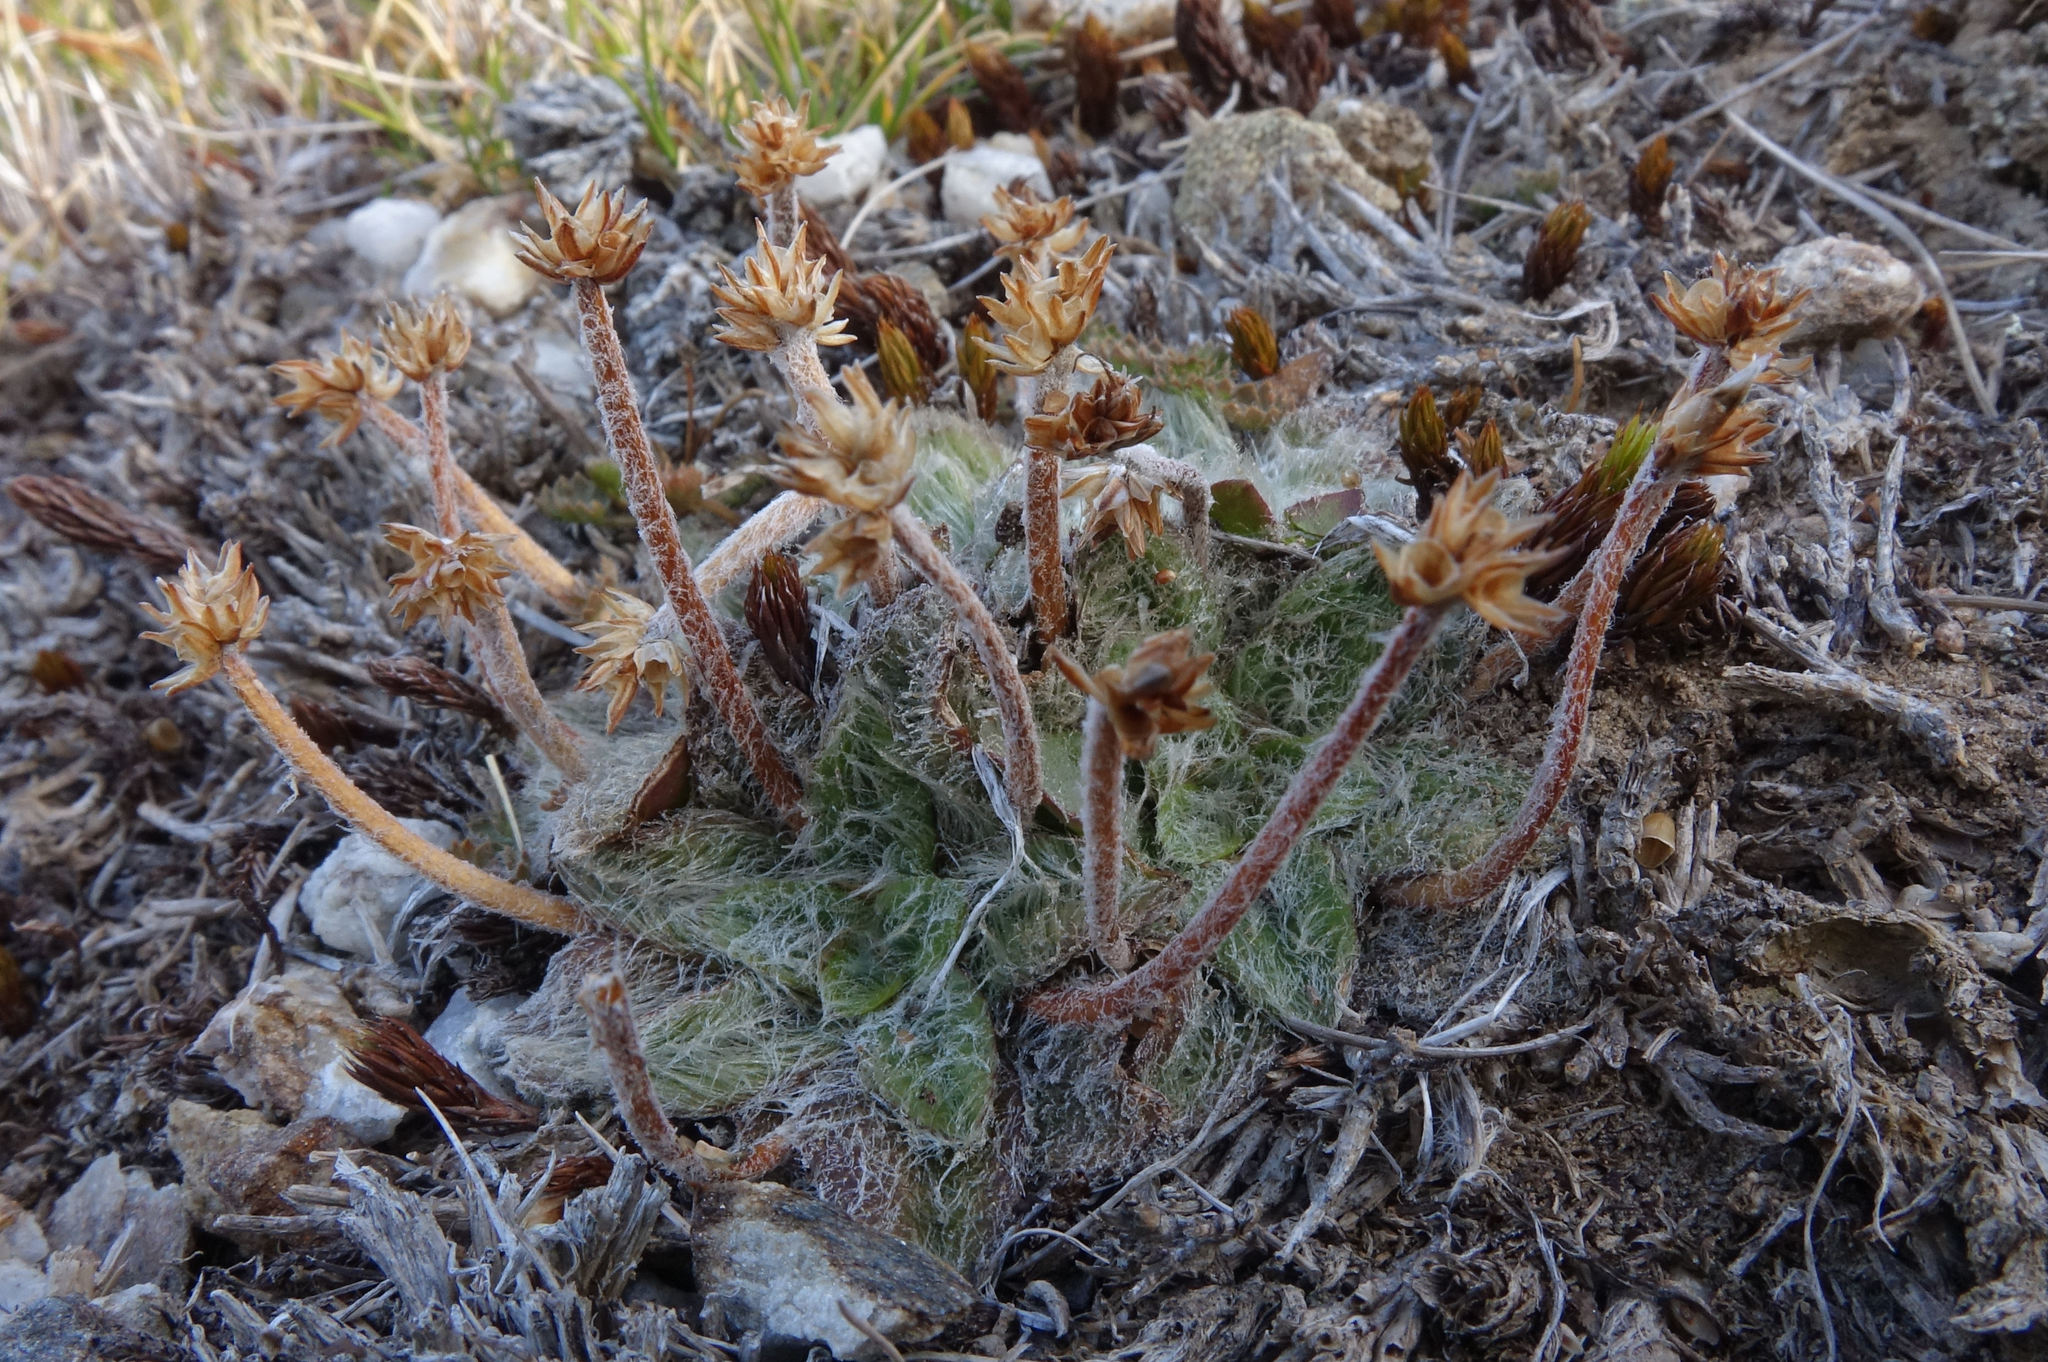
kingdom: Plantae
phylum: Tracheophyta
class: Magnoliopsida
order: Lamiales
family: Plantaginaceae
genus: Plantago
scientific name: Plantago lanigera
